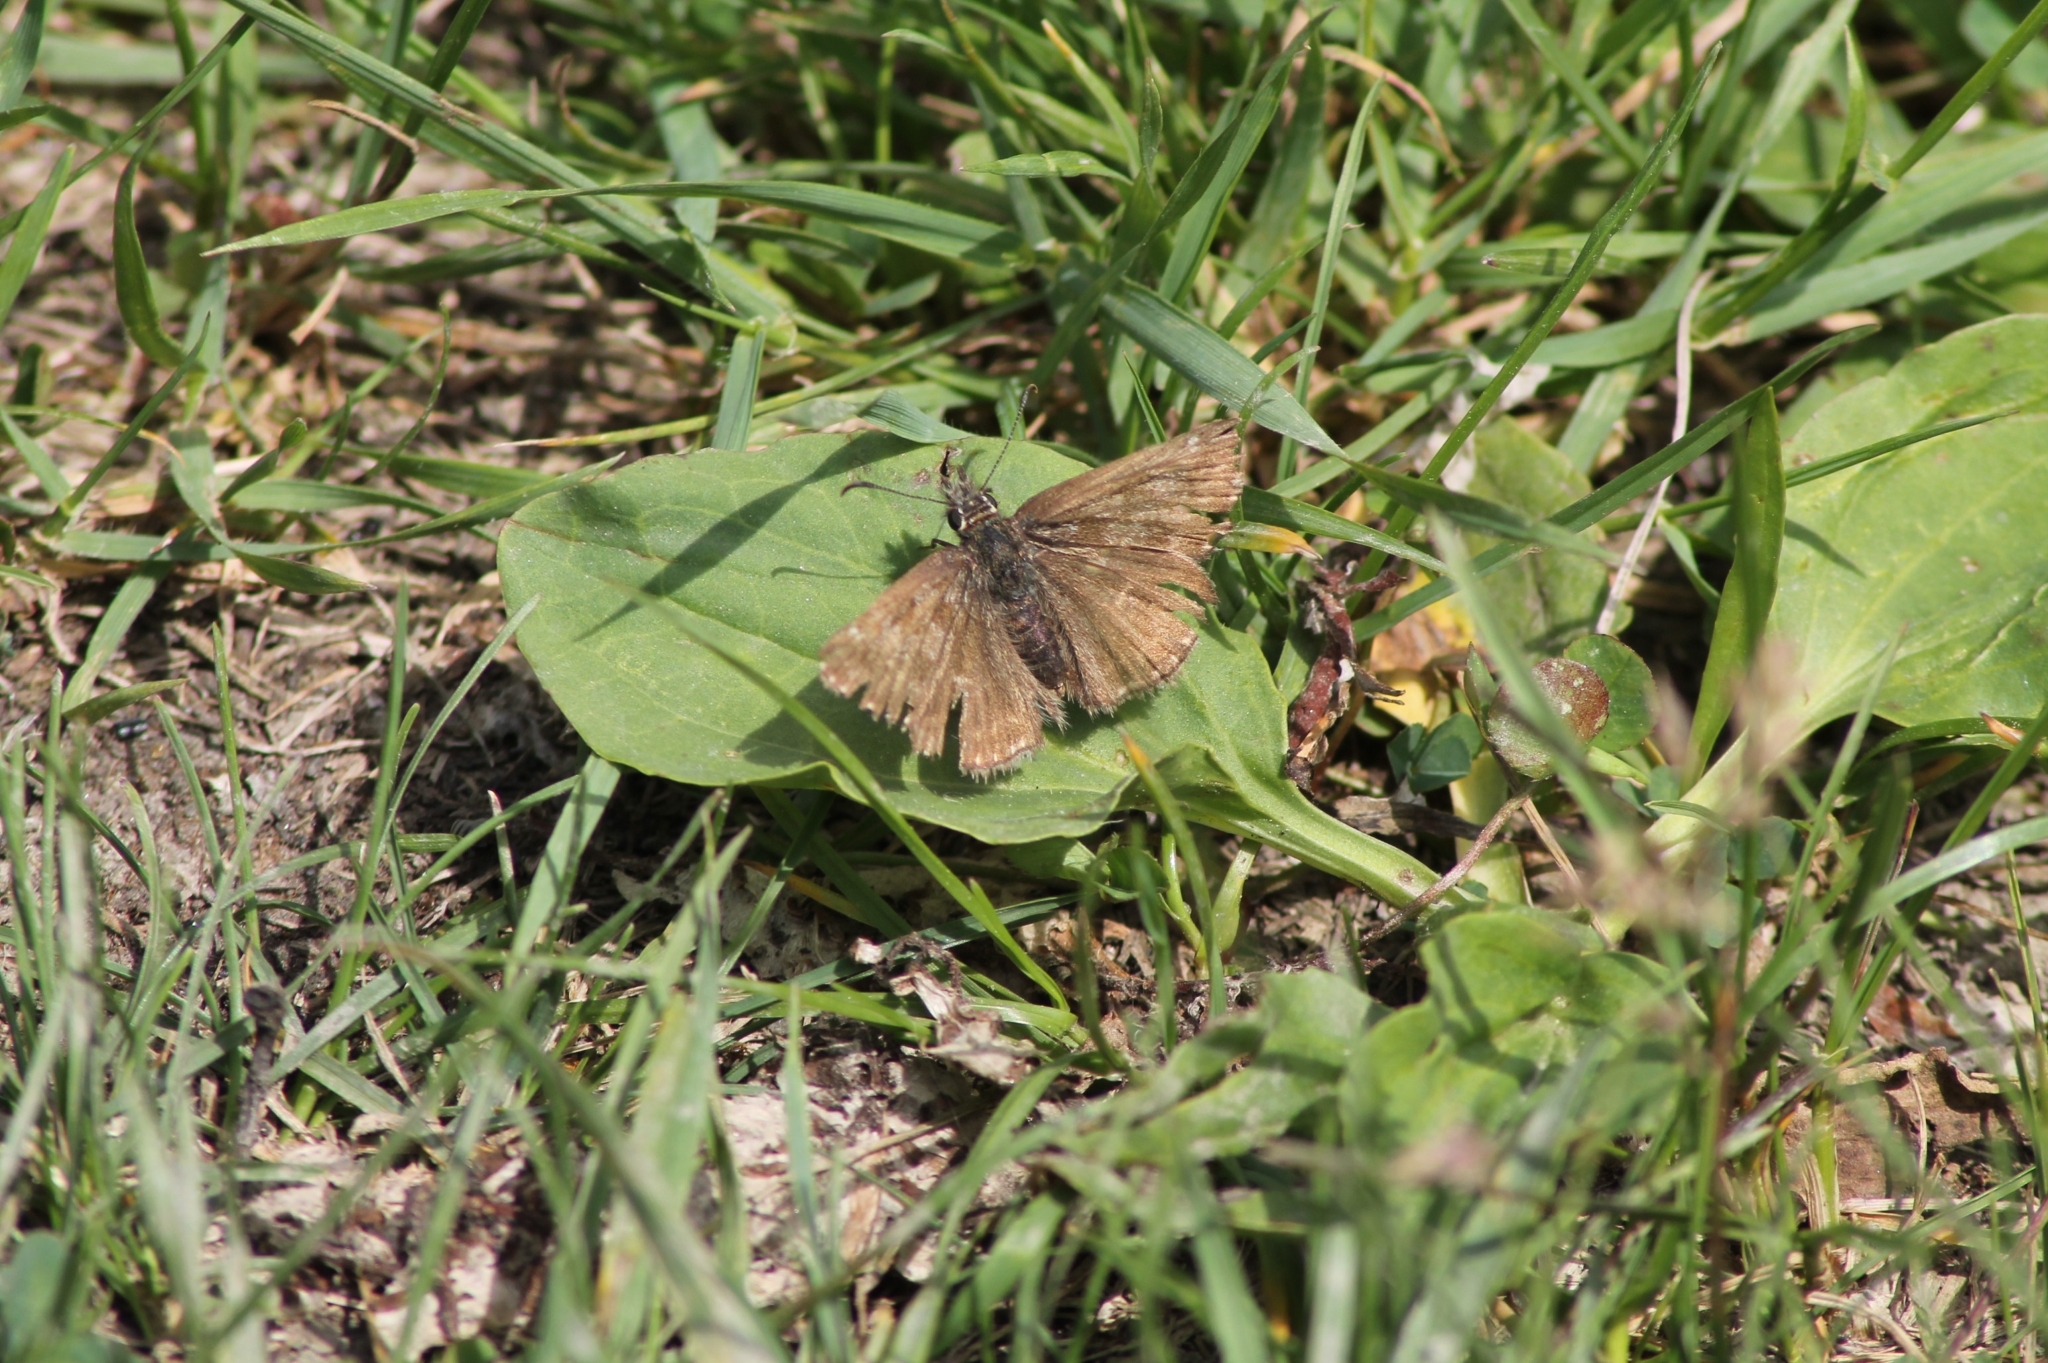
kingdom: Animalia
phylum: Arthropoda
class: Insecta
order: Lepidoptera
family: Hesperiidae
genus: Erynnis
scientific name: Erynnis tages
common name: Dingy skipper
